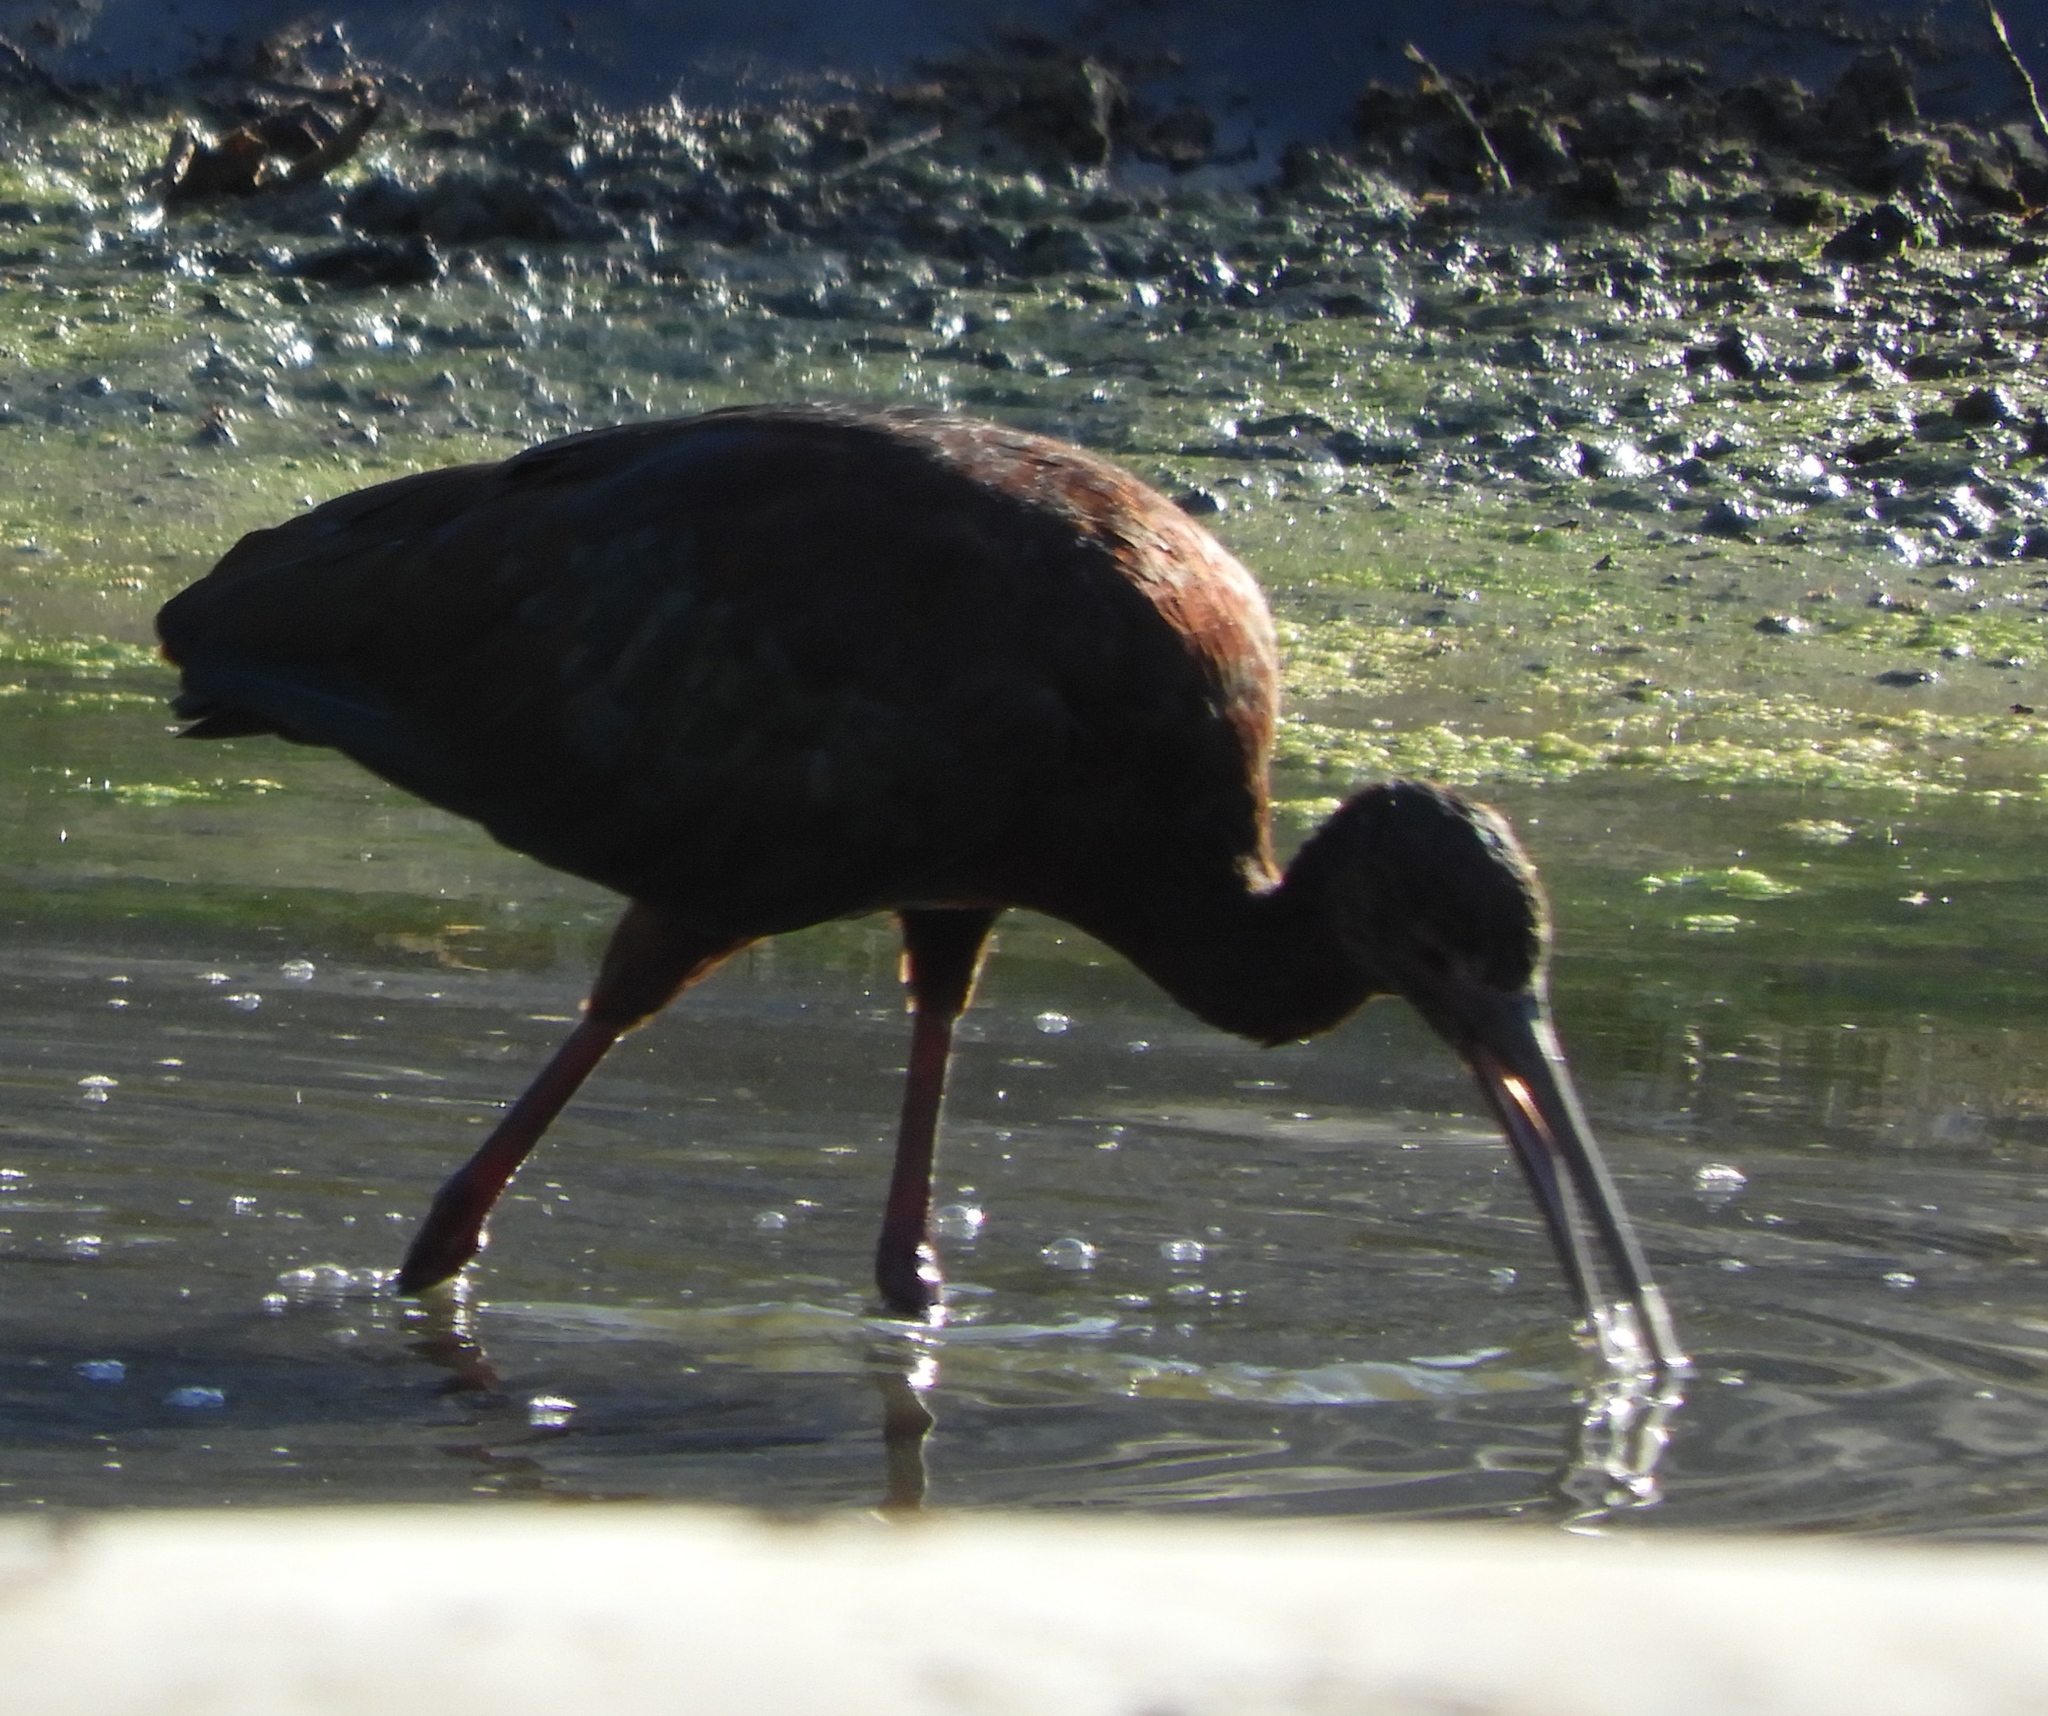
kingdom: Animalia
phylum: Chordata
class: Aves
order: Pelecaniformes
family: Threskiornithidae
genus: Plegadis
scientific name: Plegadis chihi
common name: White-faced ibis
